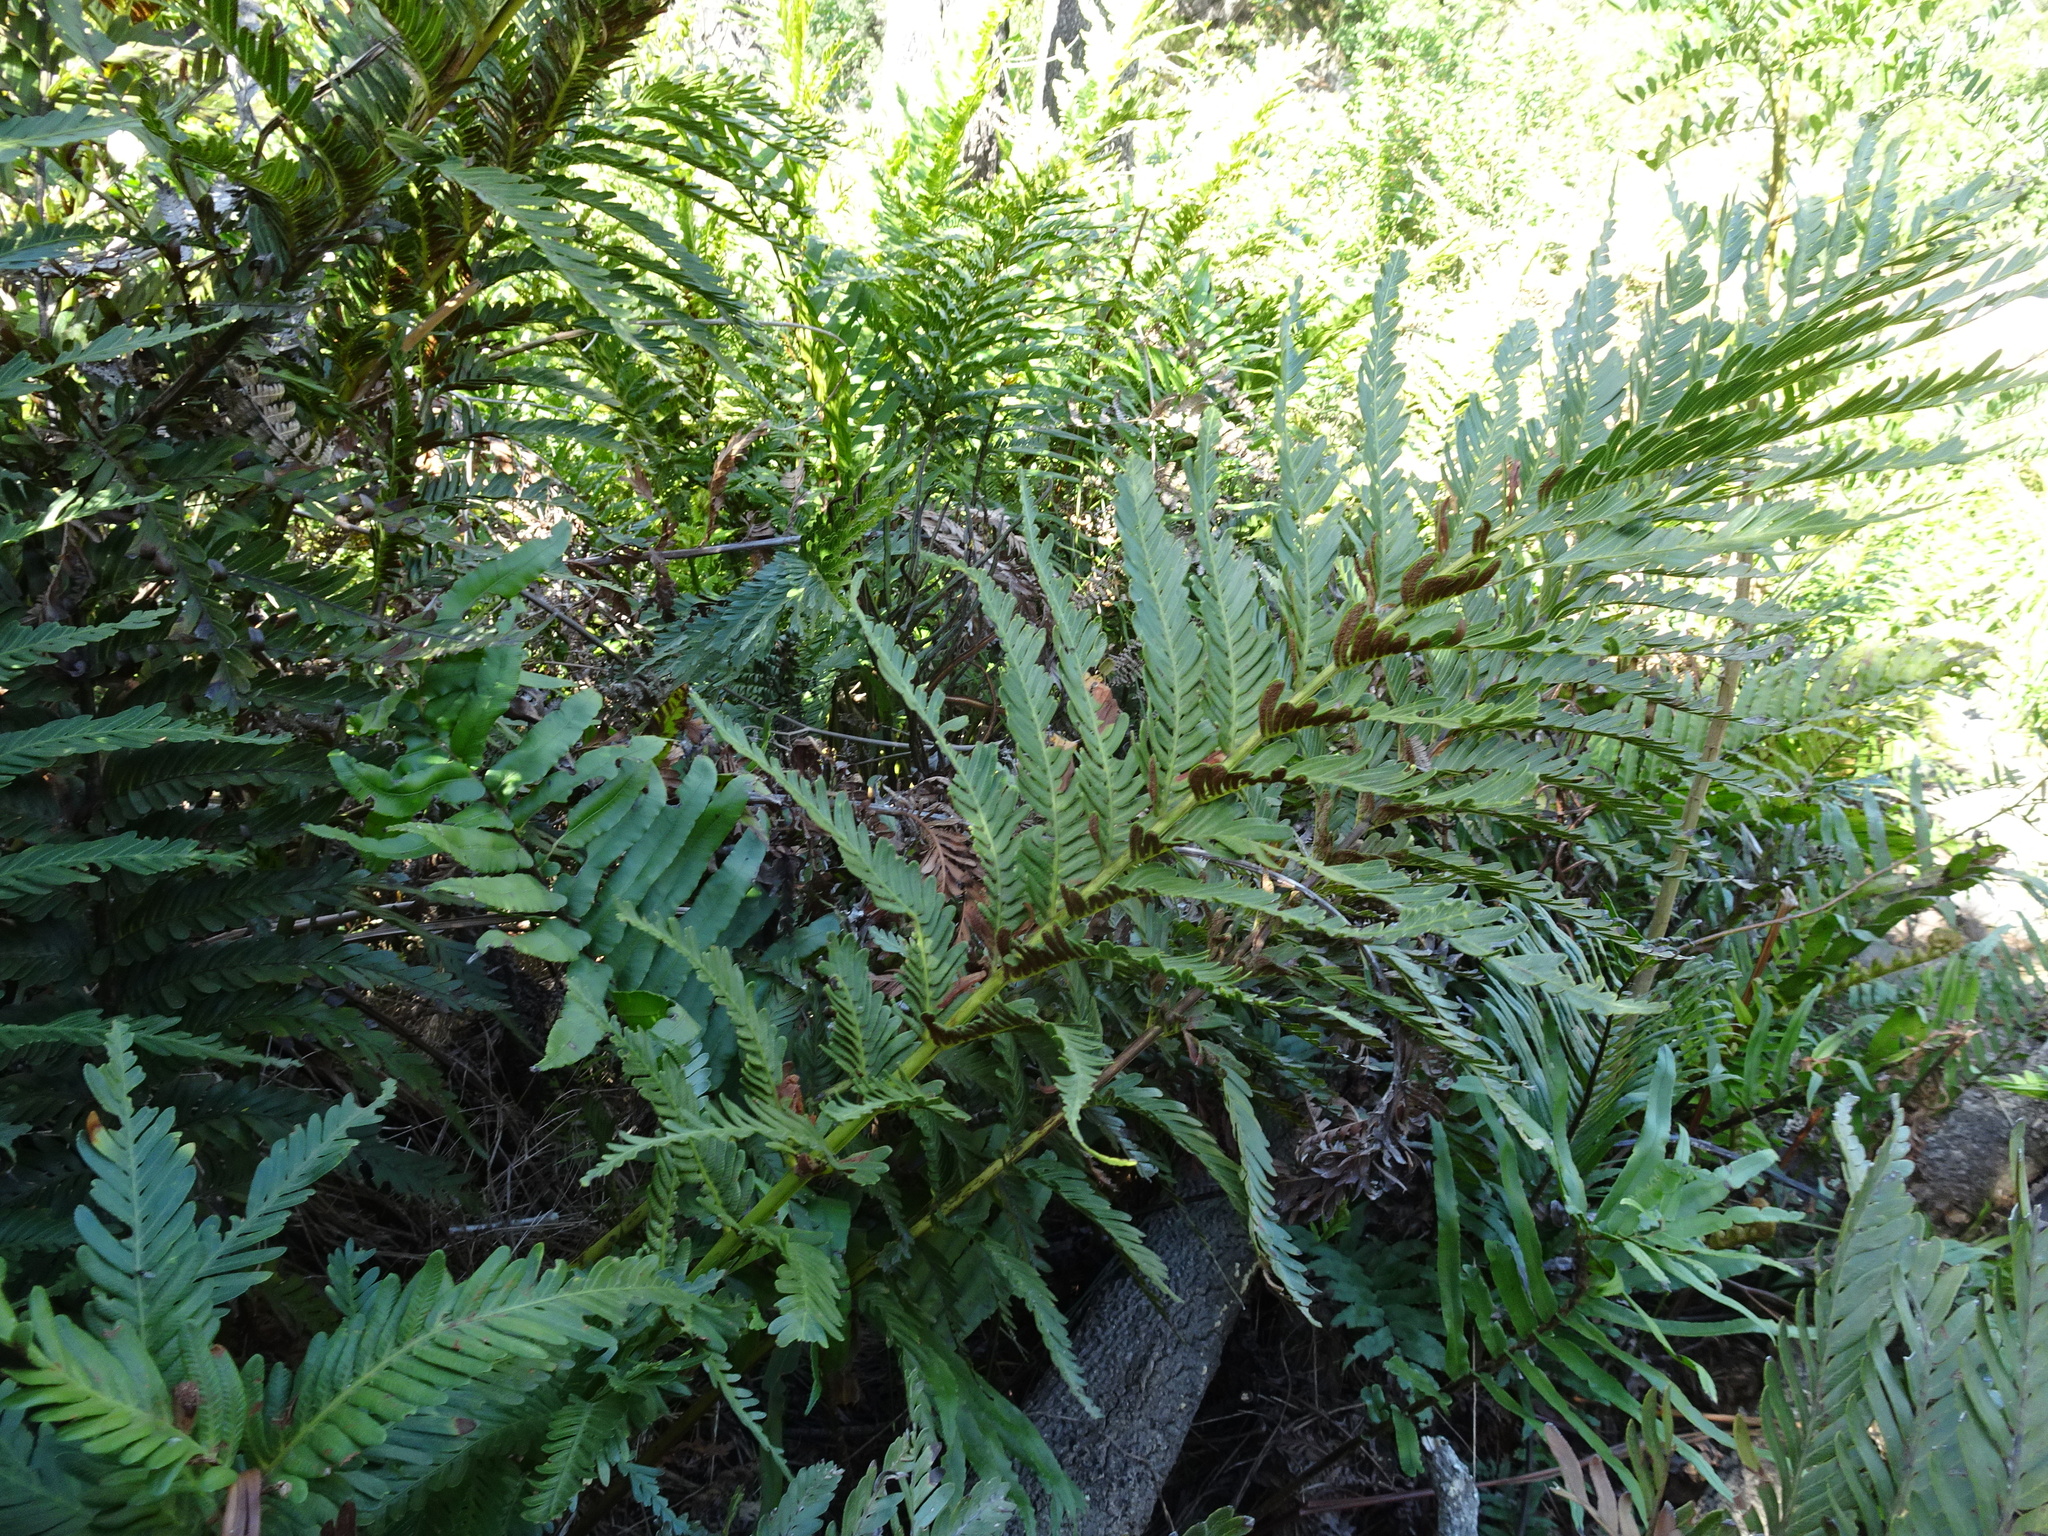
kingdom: Plantae
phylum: Tracheophyta
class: Polypodiopsida
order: Osmundales
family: Osmundaceae
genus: Todea
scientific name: Todea barbara
